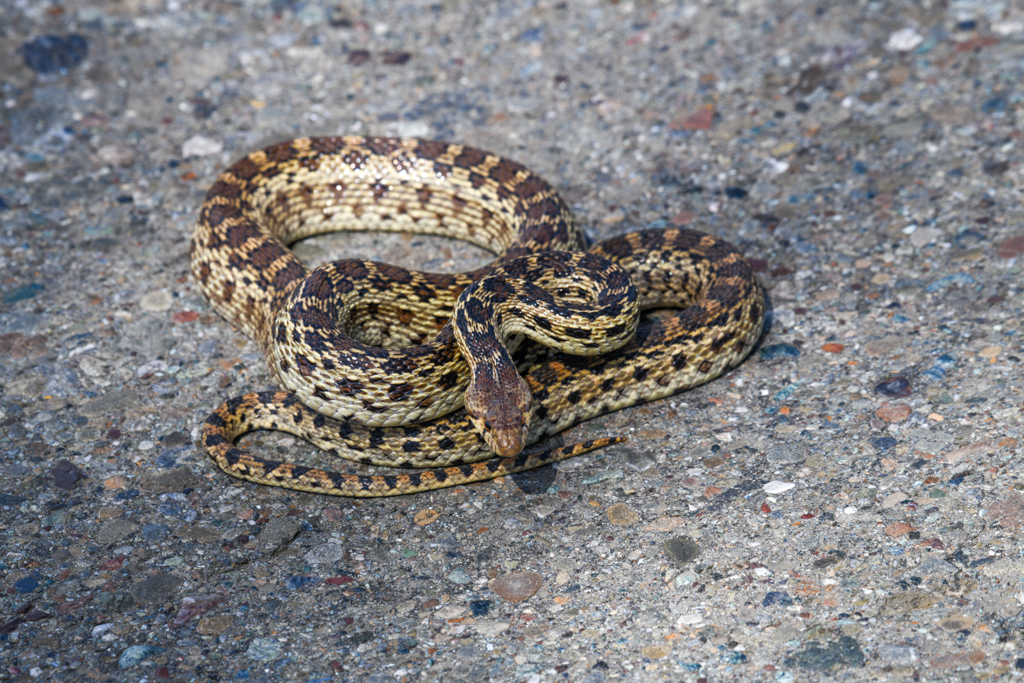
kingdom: Animalia
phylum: Chordata
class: Squamata
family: Colubridae
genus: Pituophis
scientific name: Pituophis catenifer
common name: Gopher snake
